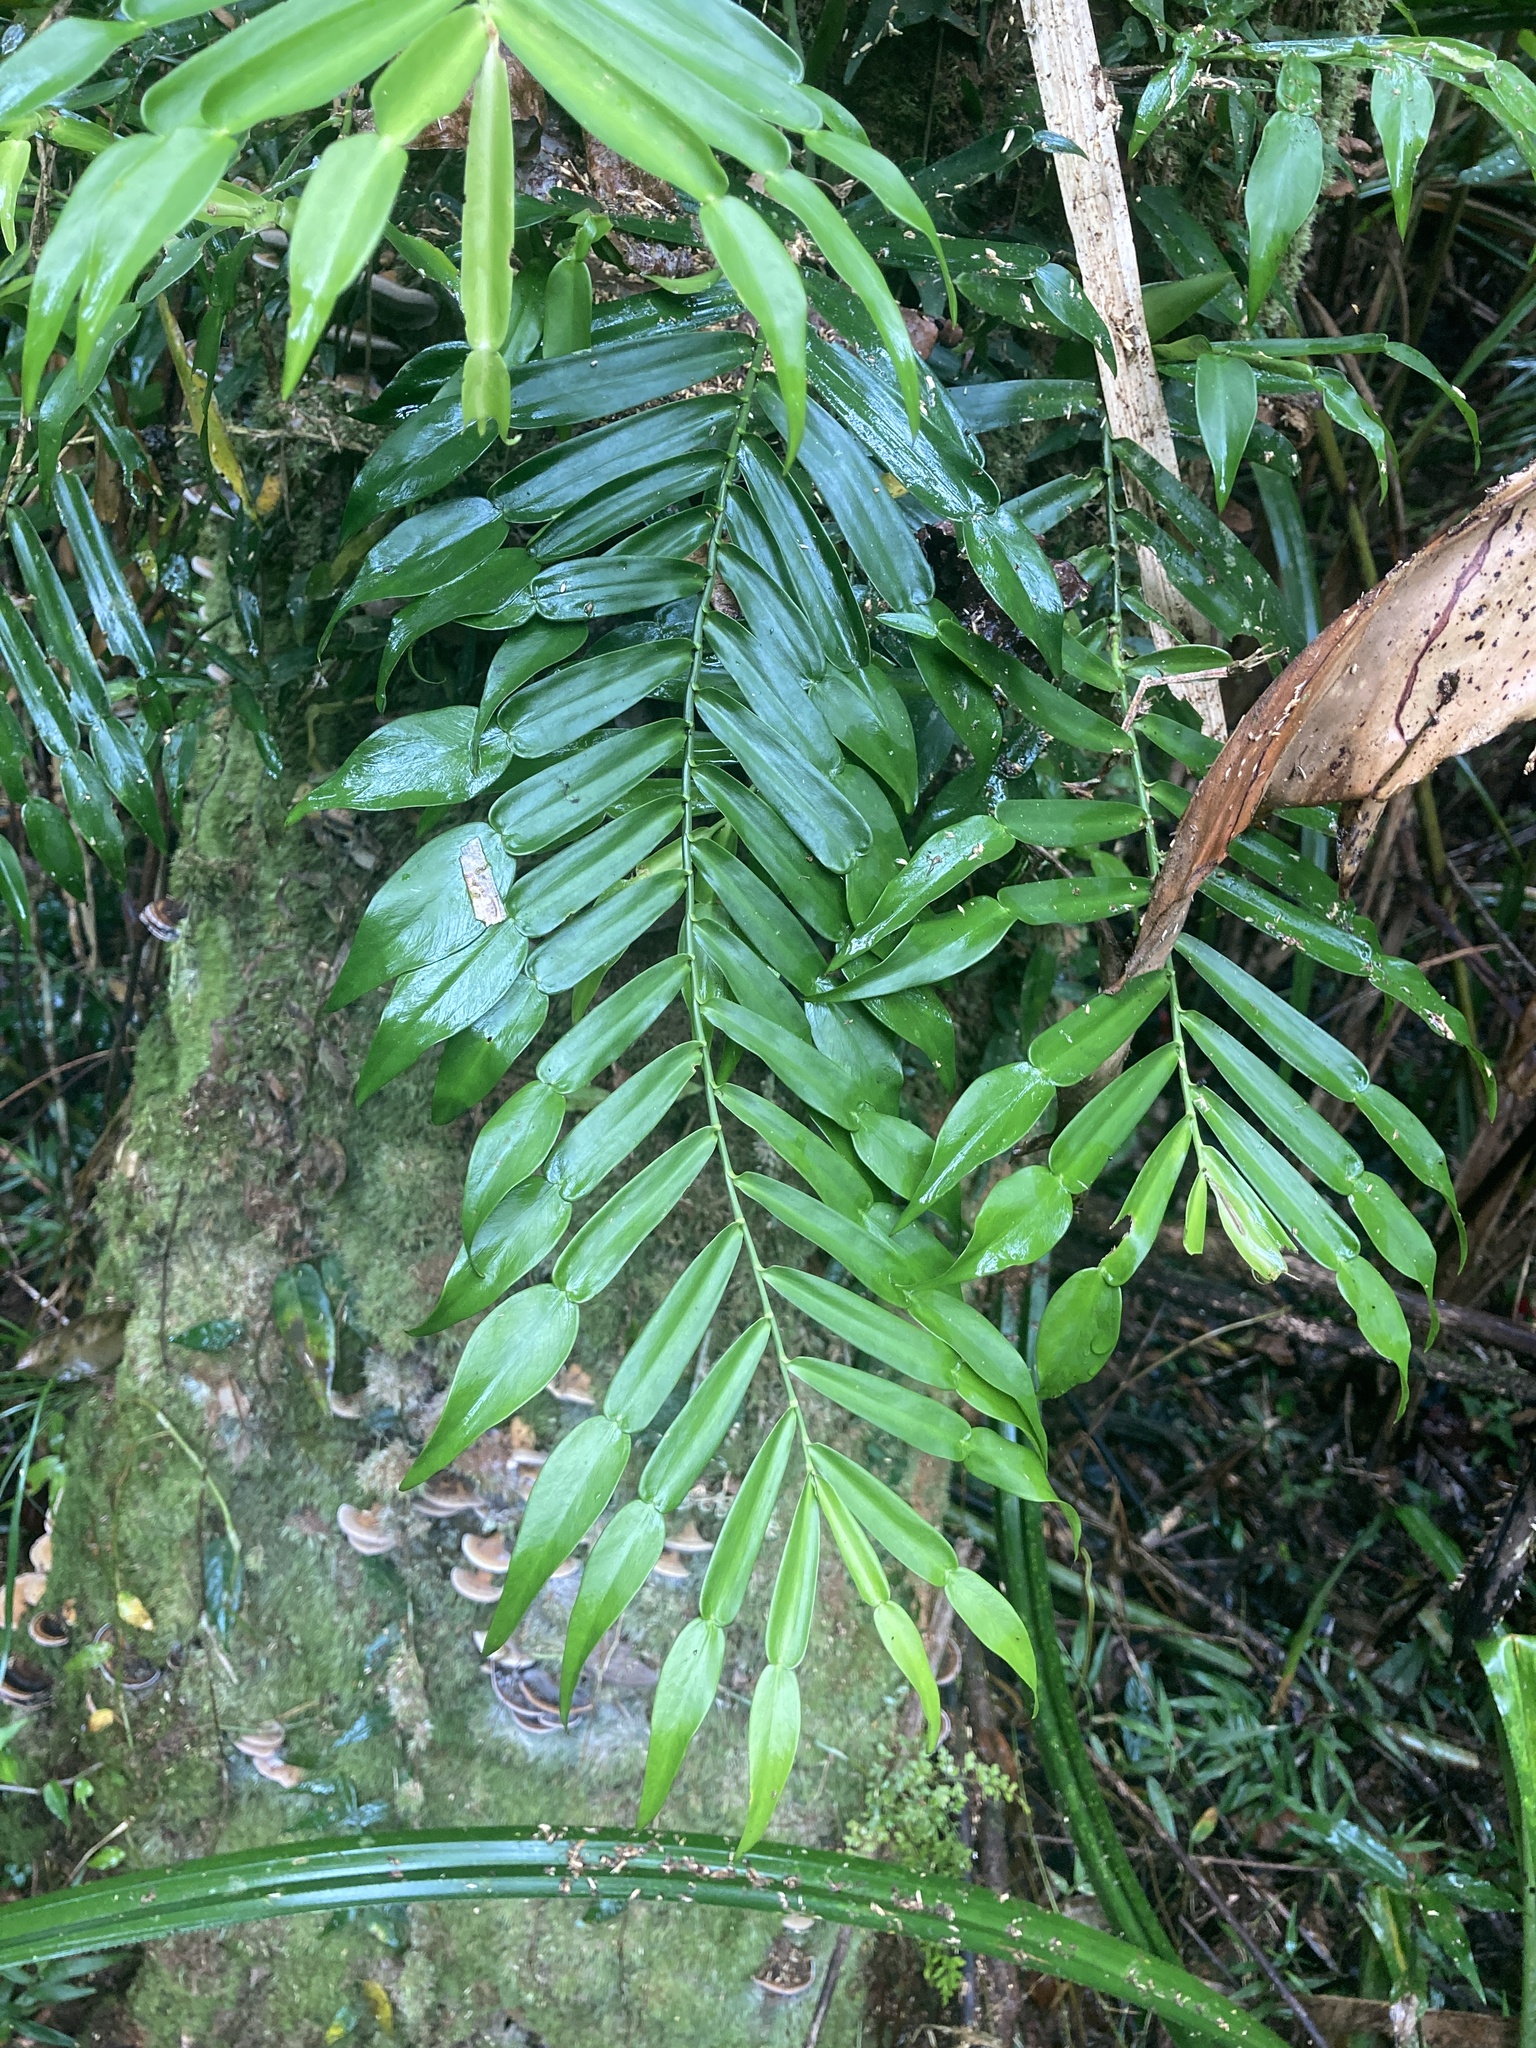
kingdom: Plantae
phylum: Tracheophyta
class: Liliopsida
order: Alismatales
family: Araceae
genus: Pothos
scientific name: Pothos longipes
